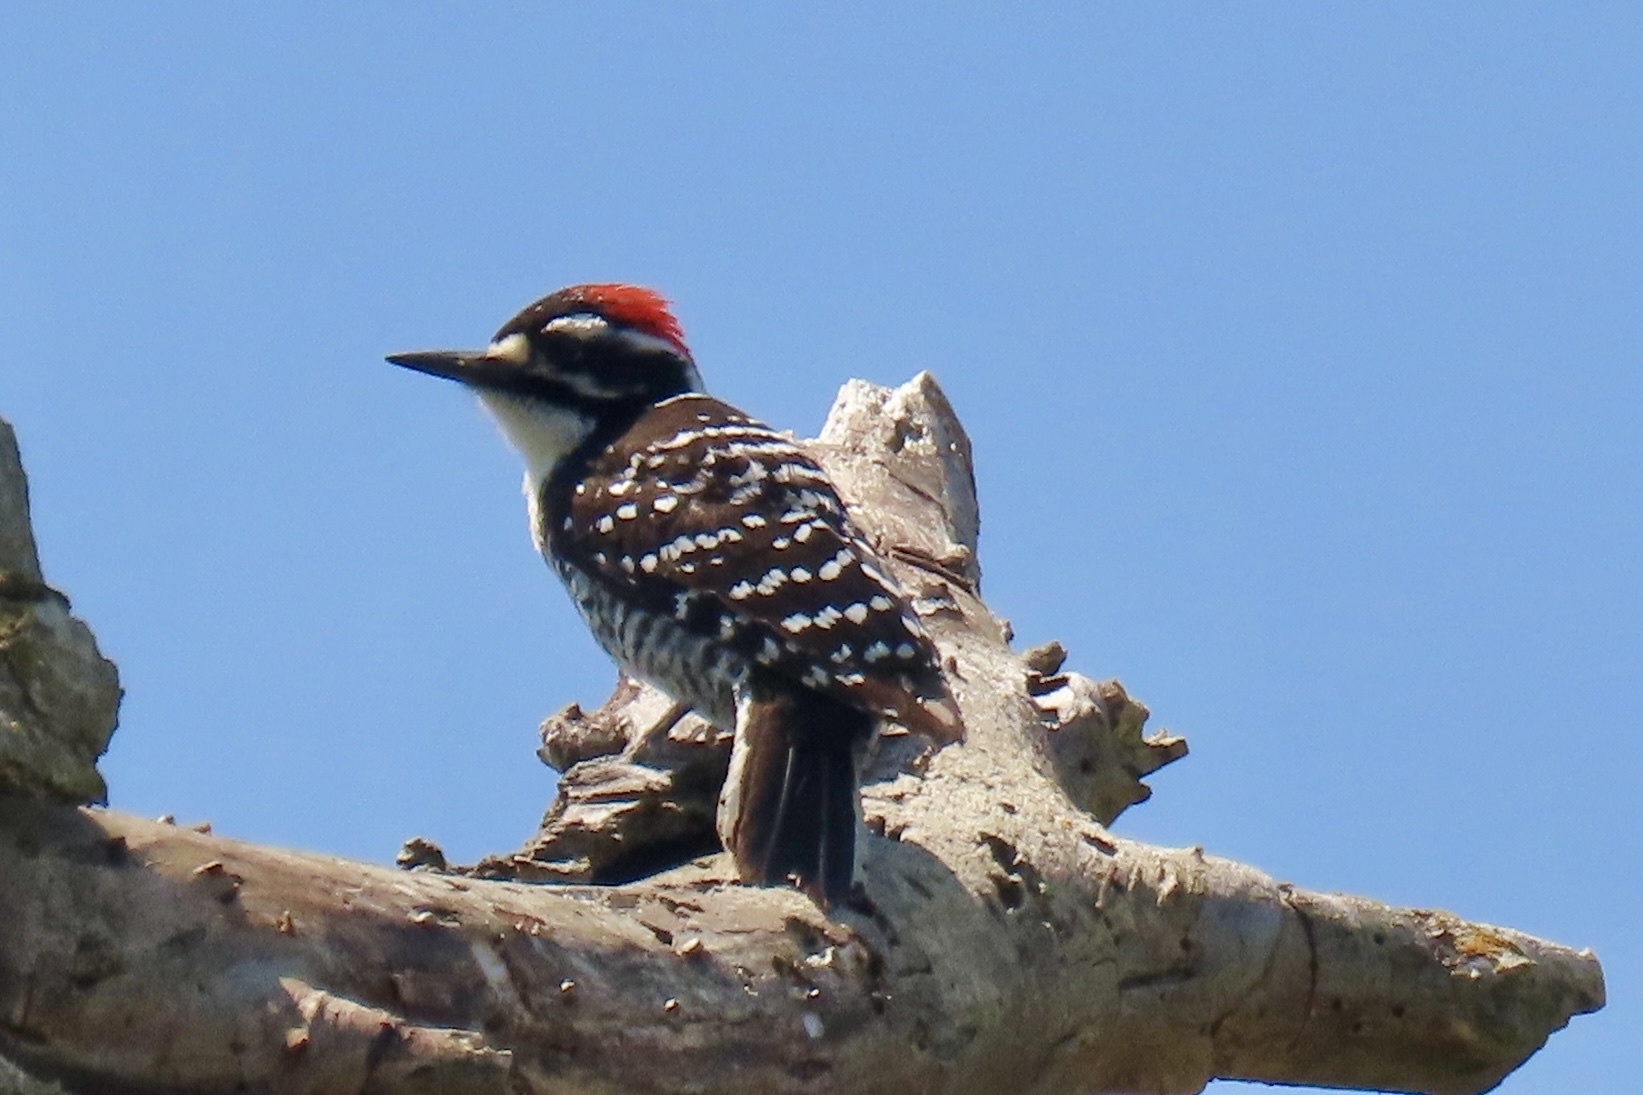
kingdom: Animalia
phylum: Chordata
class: Aves
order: Piciformes
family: Picidae
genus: Dryobates
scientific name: Dryobates nuttallii
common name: Nuttall's woodpecker
